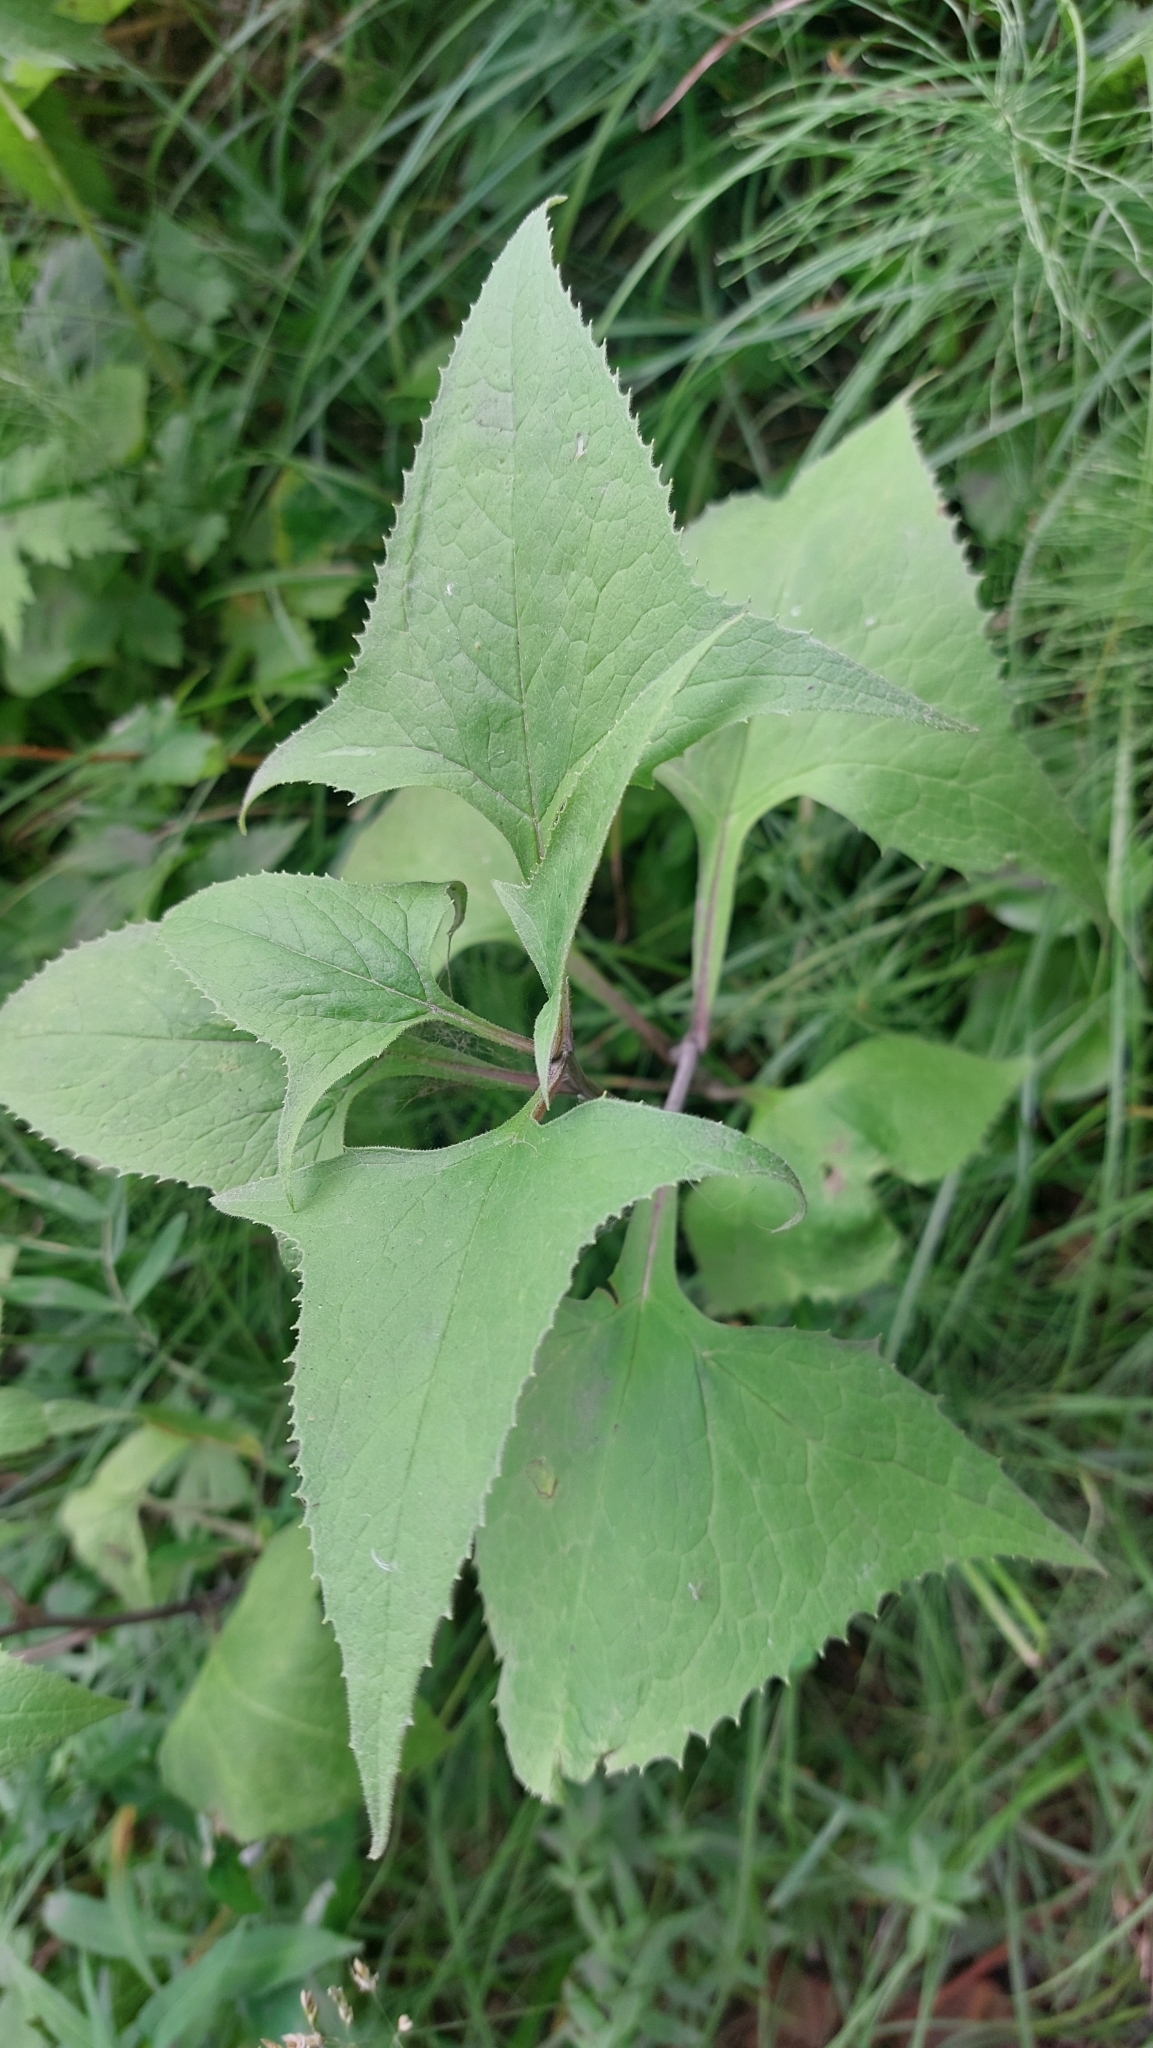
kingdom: Plantae
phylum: Tracheophyta
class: Magnoliopsida
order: Asterales
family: Asteraceae
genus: Parasenecio
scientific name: Parasenecio hastatus
